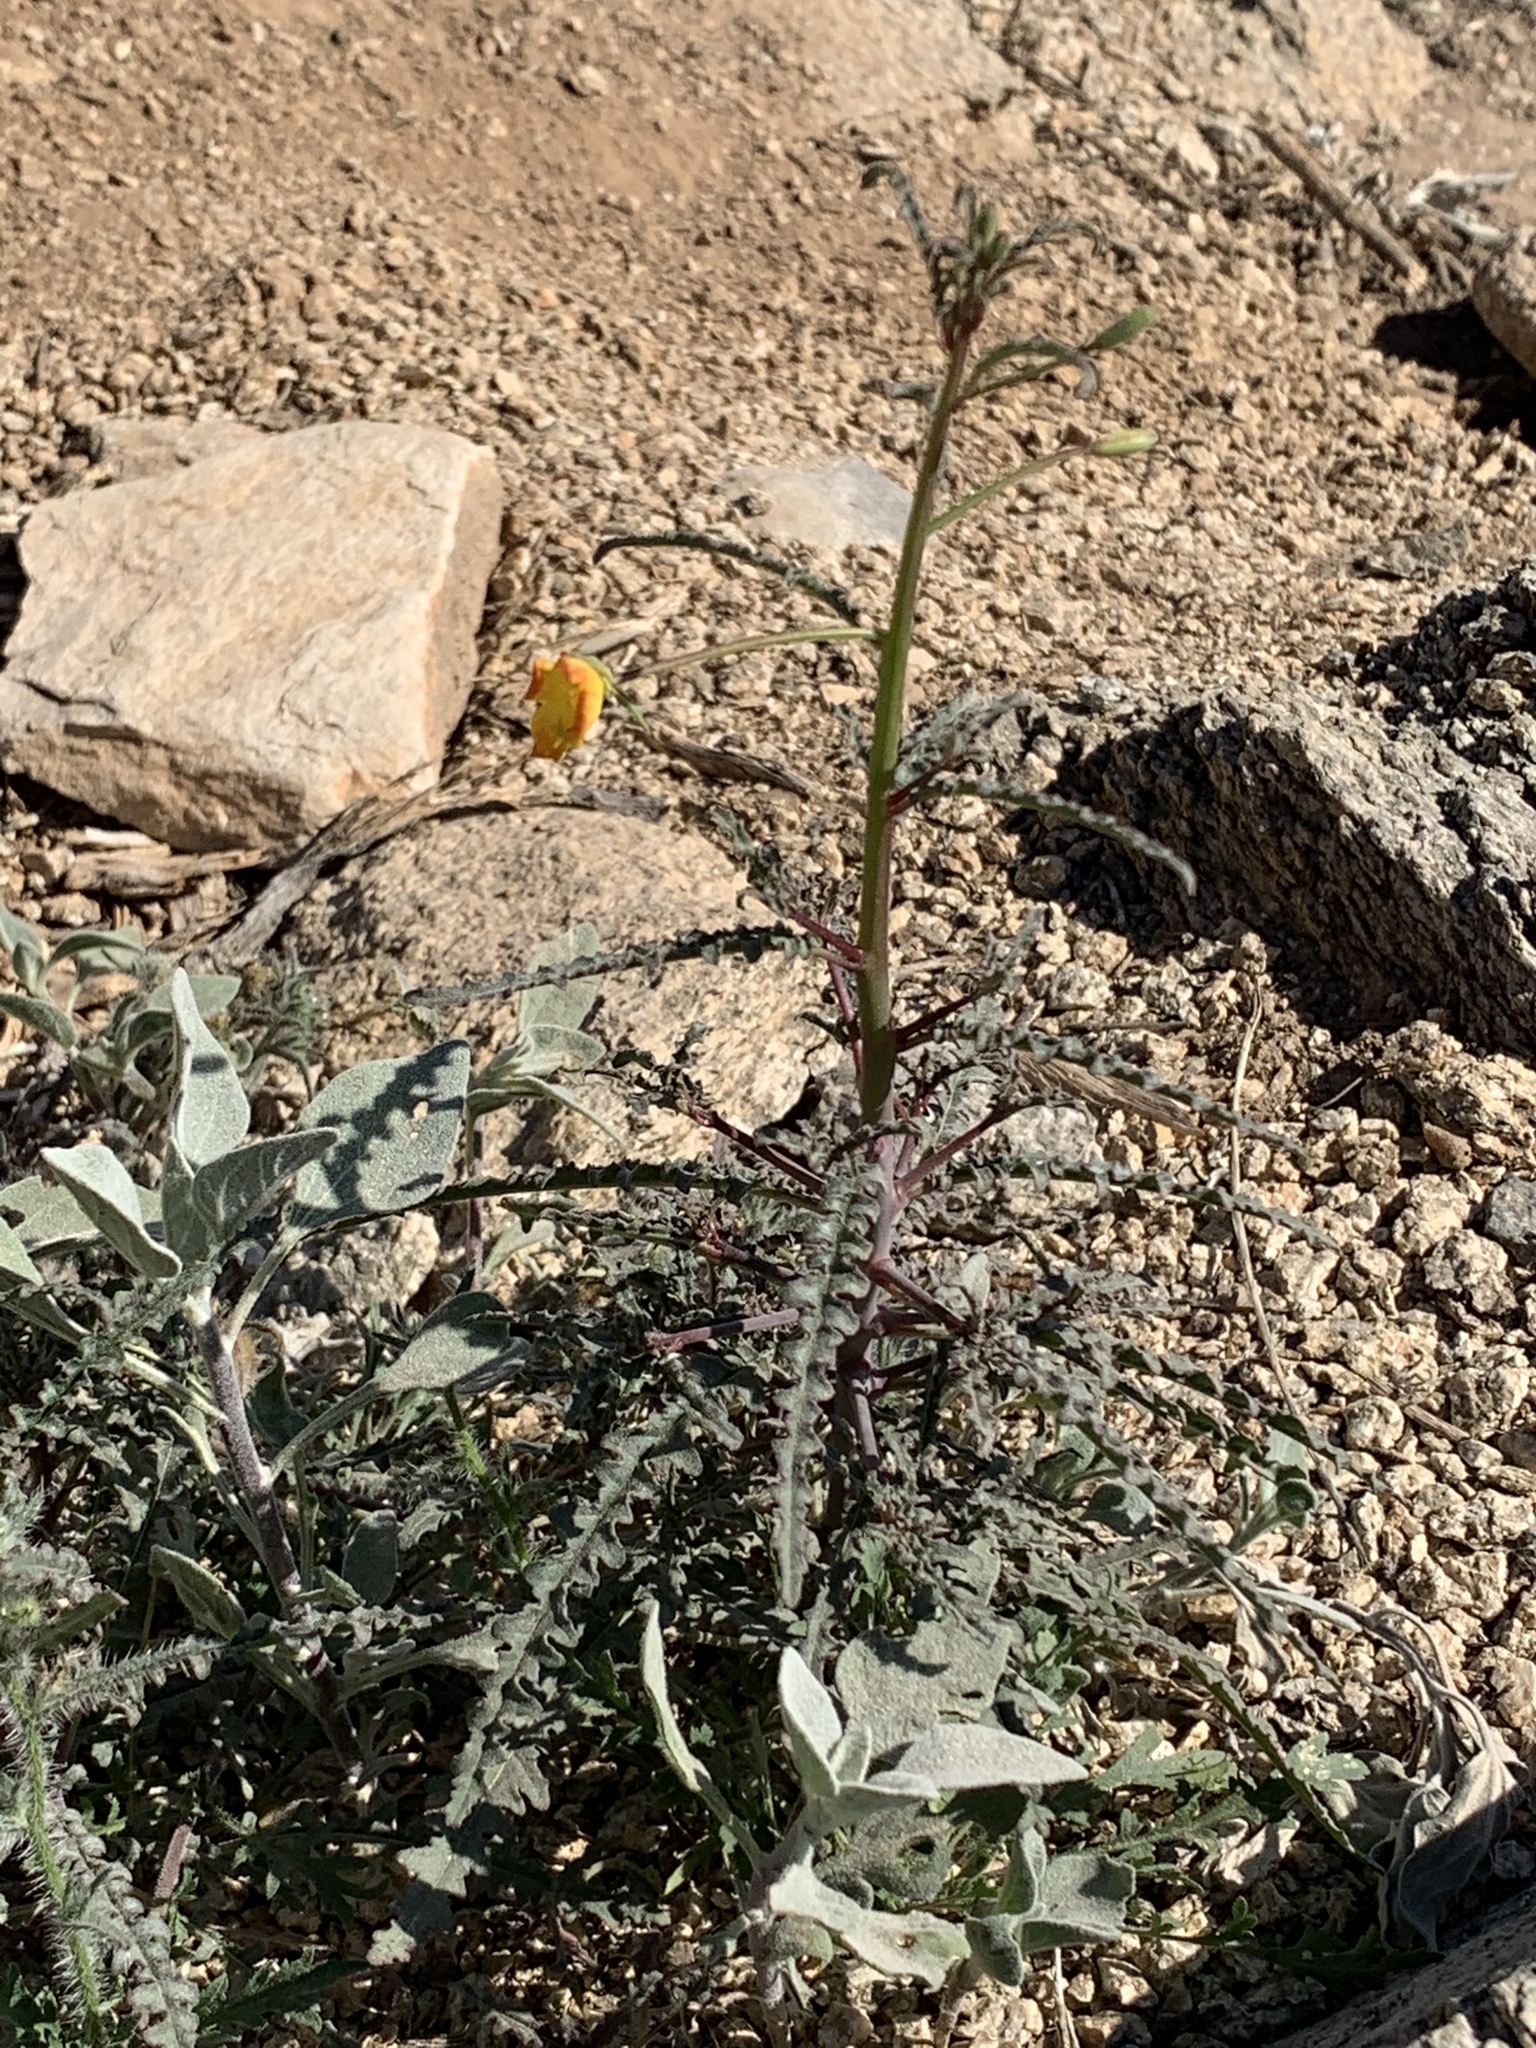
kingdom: Plantae
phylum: Tracheophyta
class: Magnoliopsida
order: Myrtales
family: Onagraceae
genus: Eulobus
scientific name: Eulobus californicus
